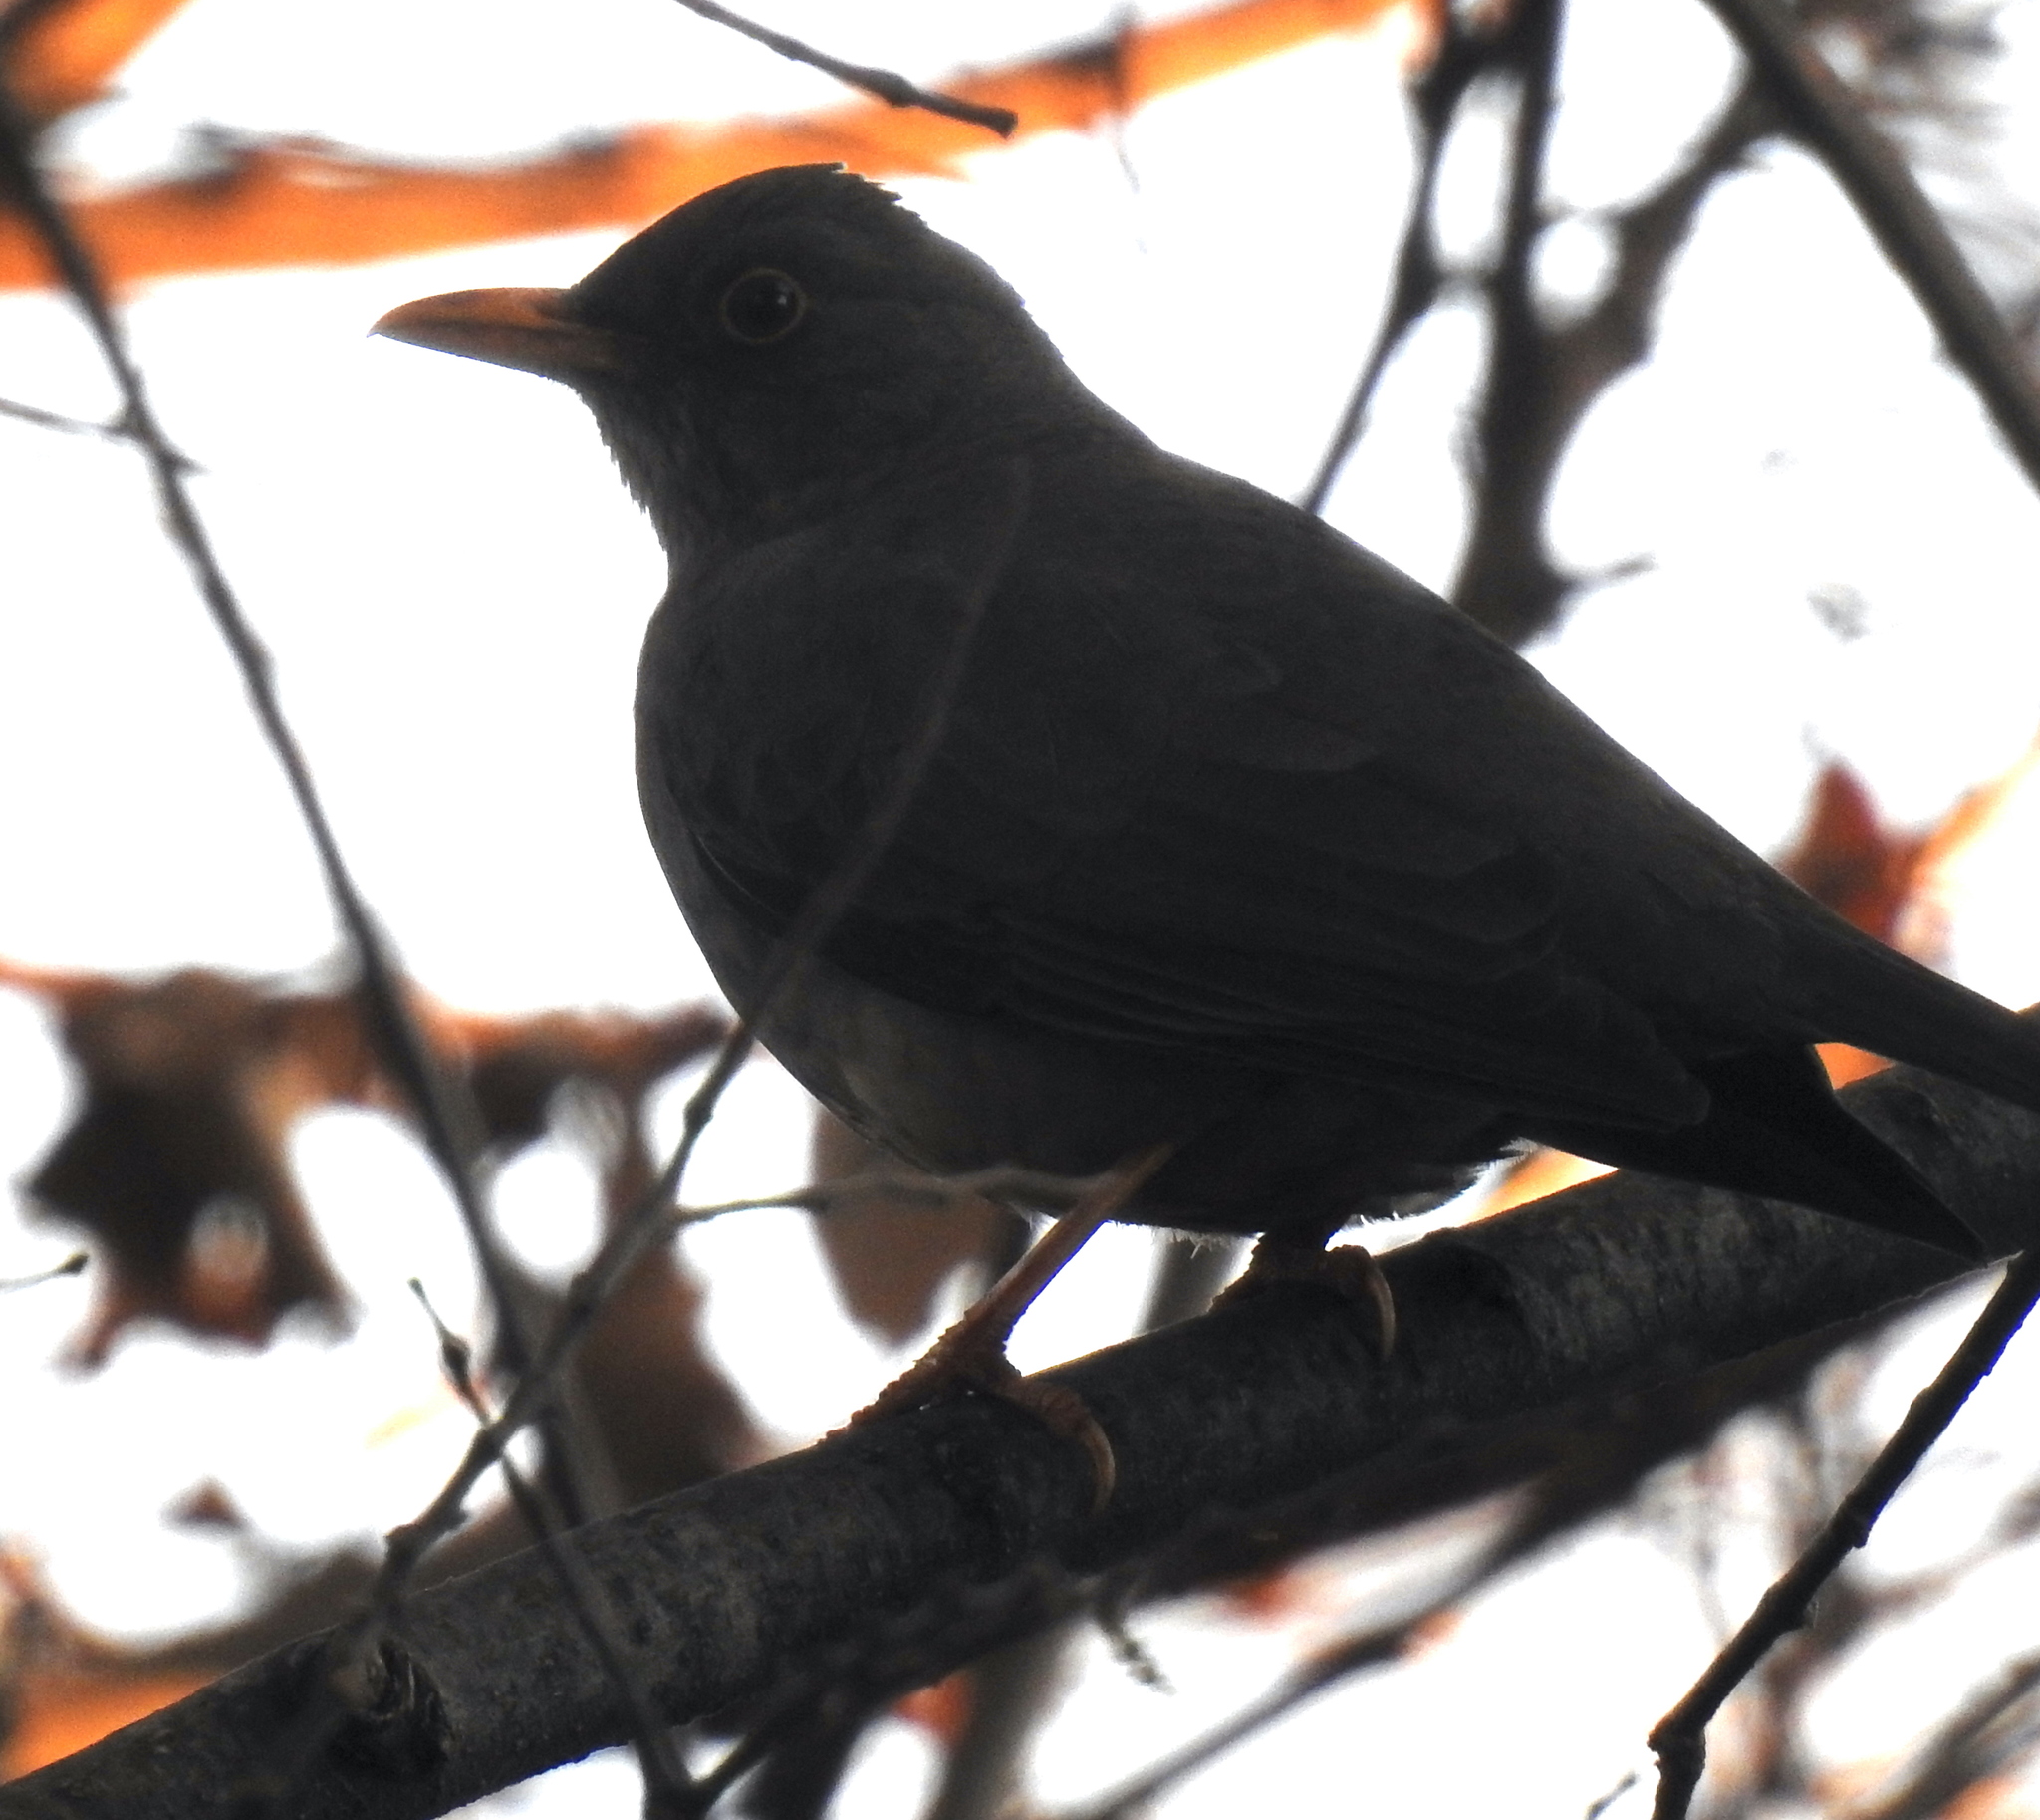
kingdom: Animalia
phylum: Chordata
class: Aves
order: Passeriformes
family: Turdidae
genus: Turdus
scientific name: Turdus smithi
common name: Karoo thrush
